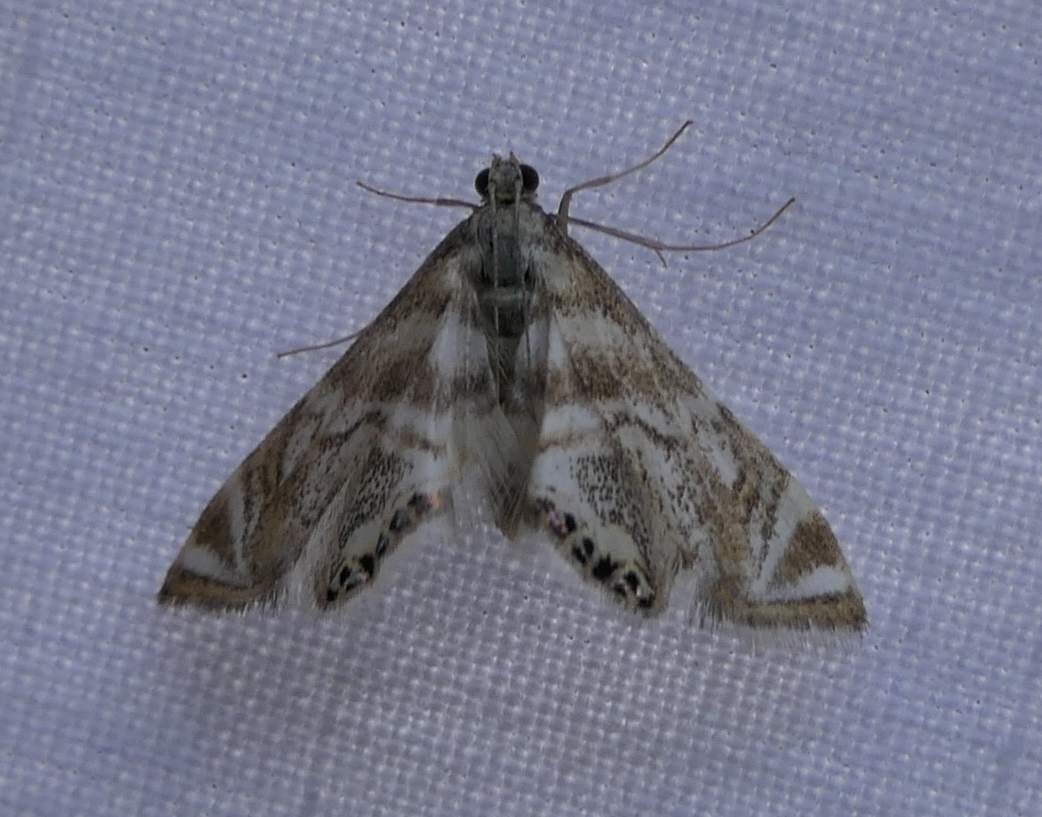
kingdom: Animalia
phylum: Arthropoda
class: Insecta
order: Lepidoptera
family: Crambidae
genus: Petrophila
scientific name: Petrophila canadensis
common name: Canadian petrophila
